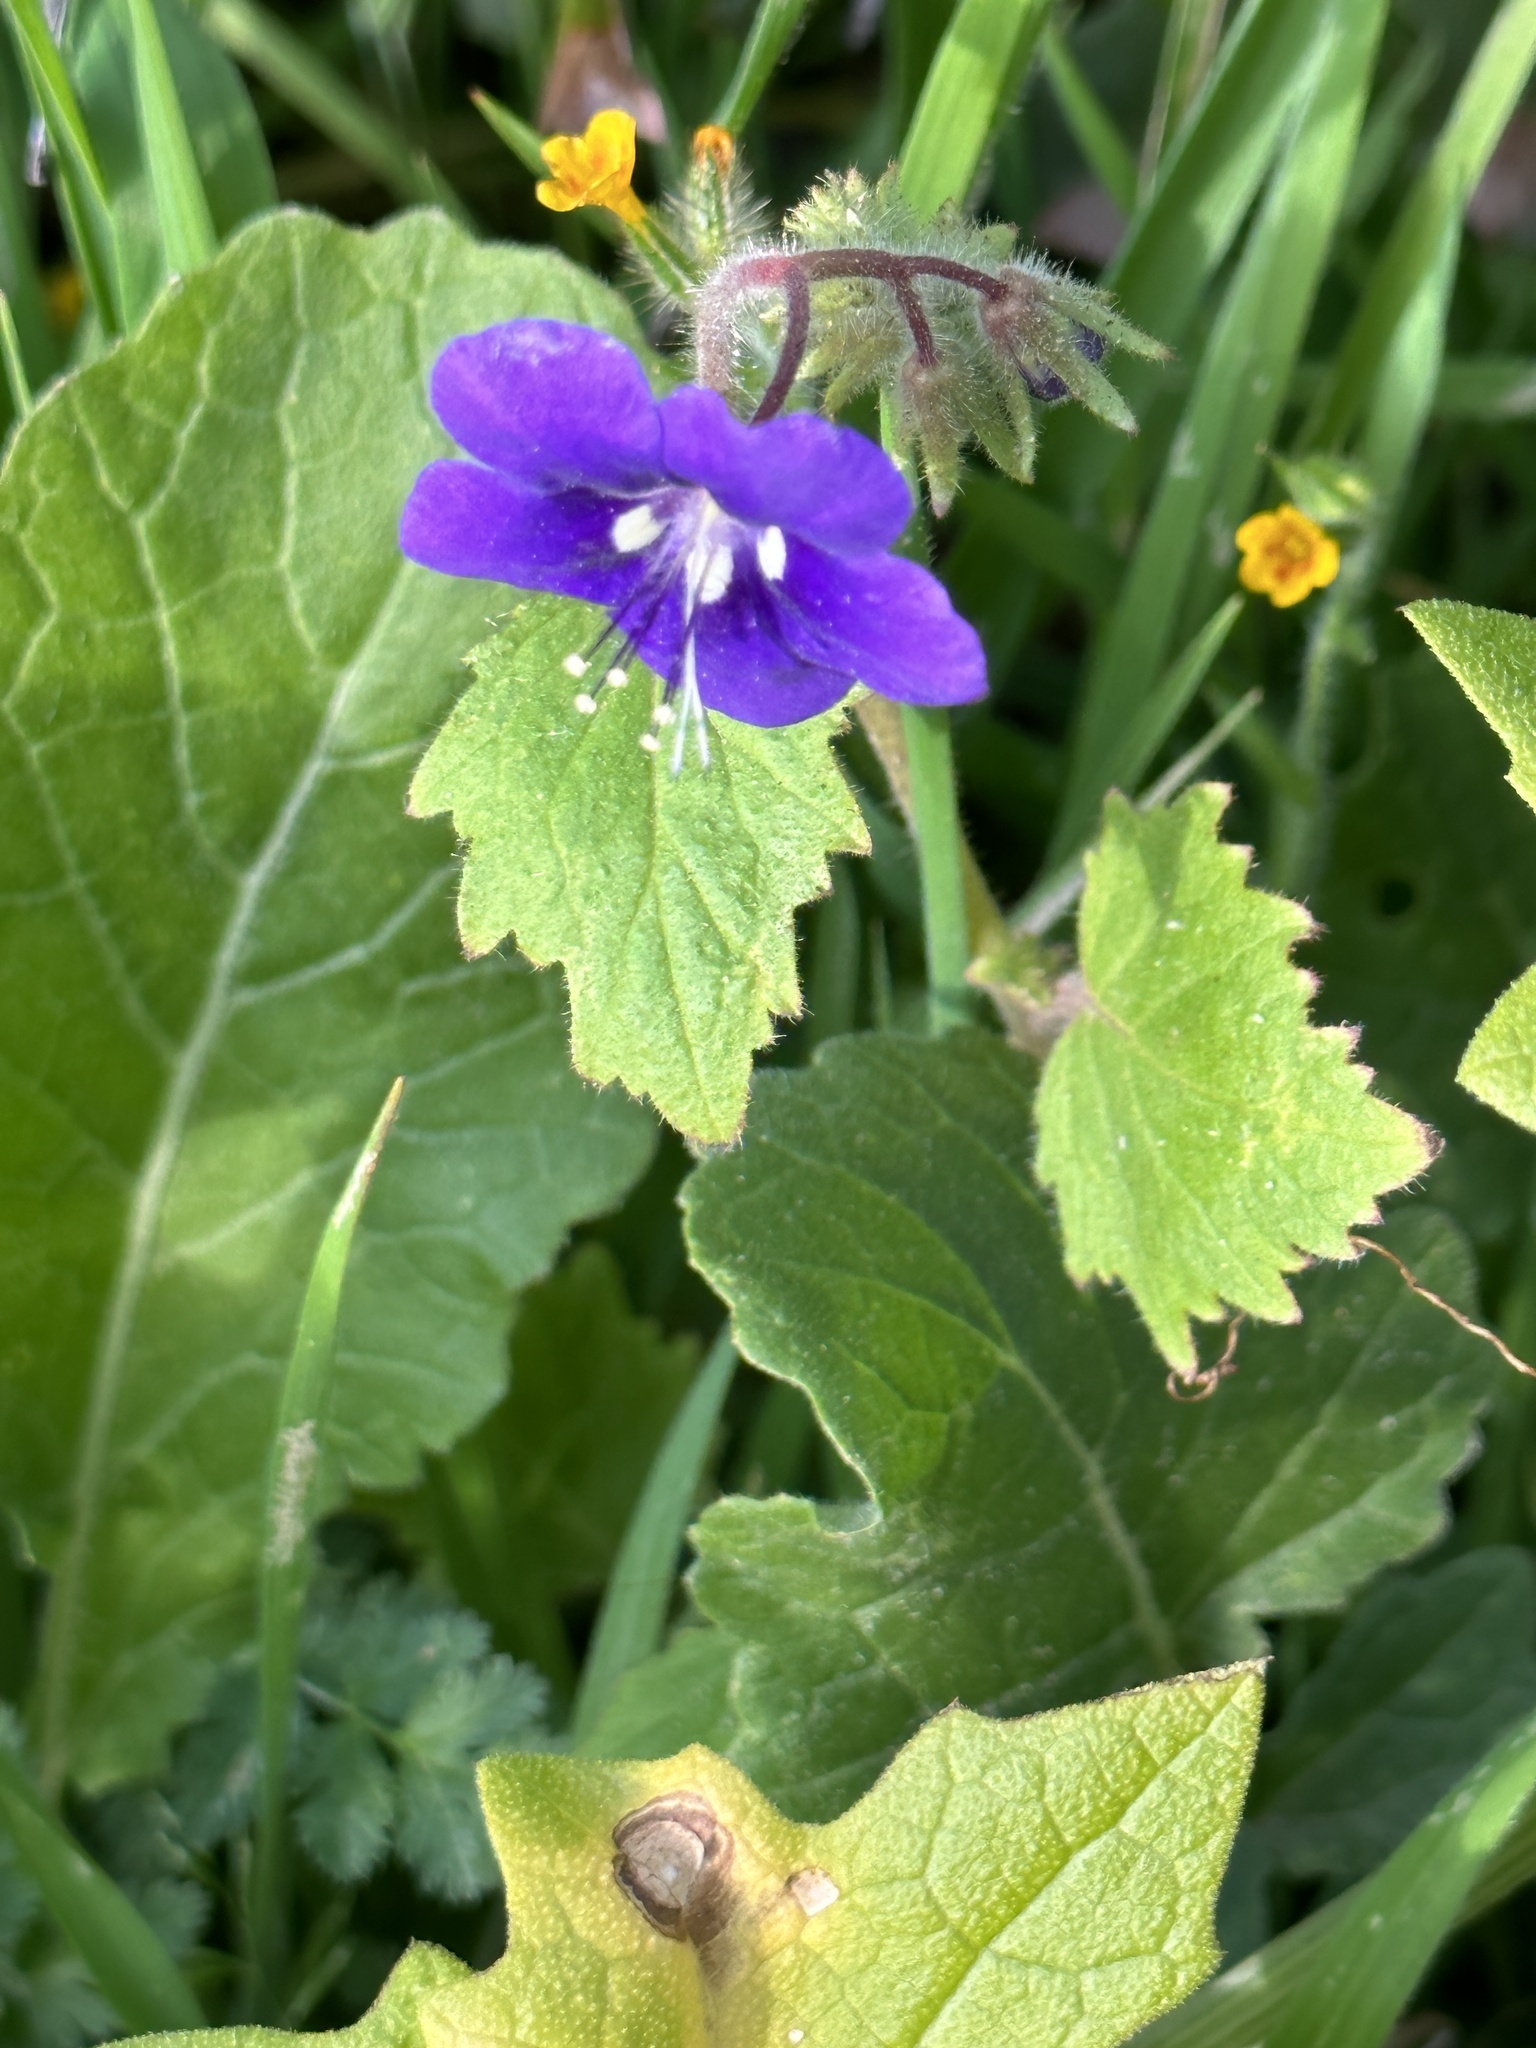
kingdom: Plantae
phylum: Tracheophyta
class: Magnoliopsida
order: Boraginales
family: Hydrophyllaceae
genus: Phacelia
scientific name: Phacelia parryi
